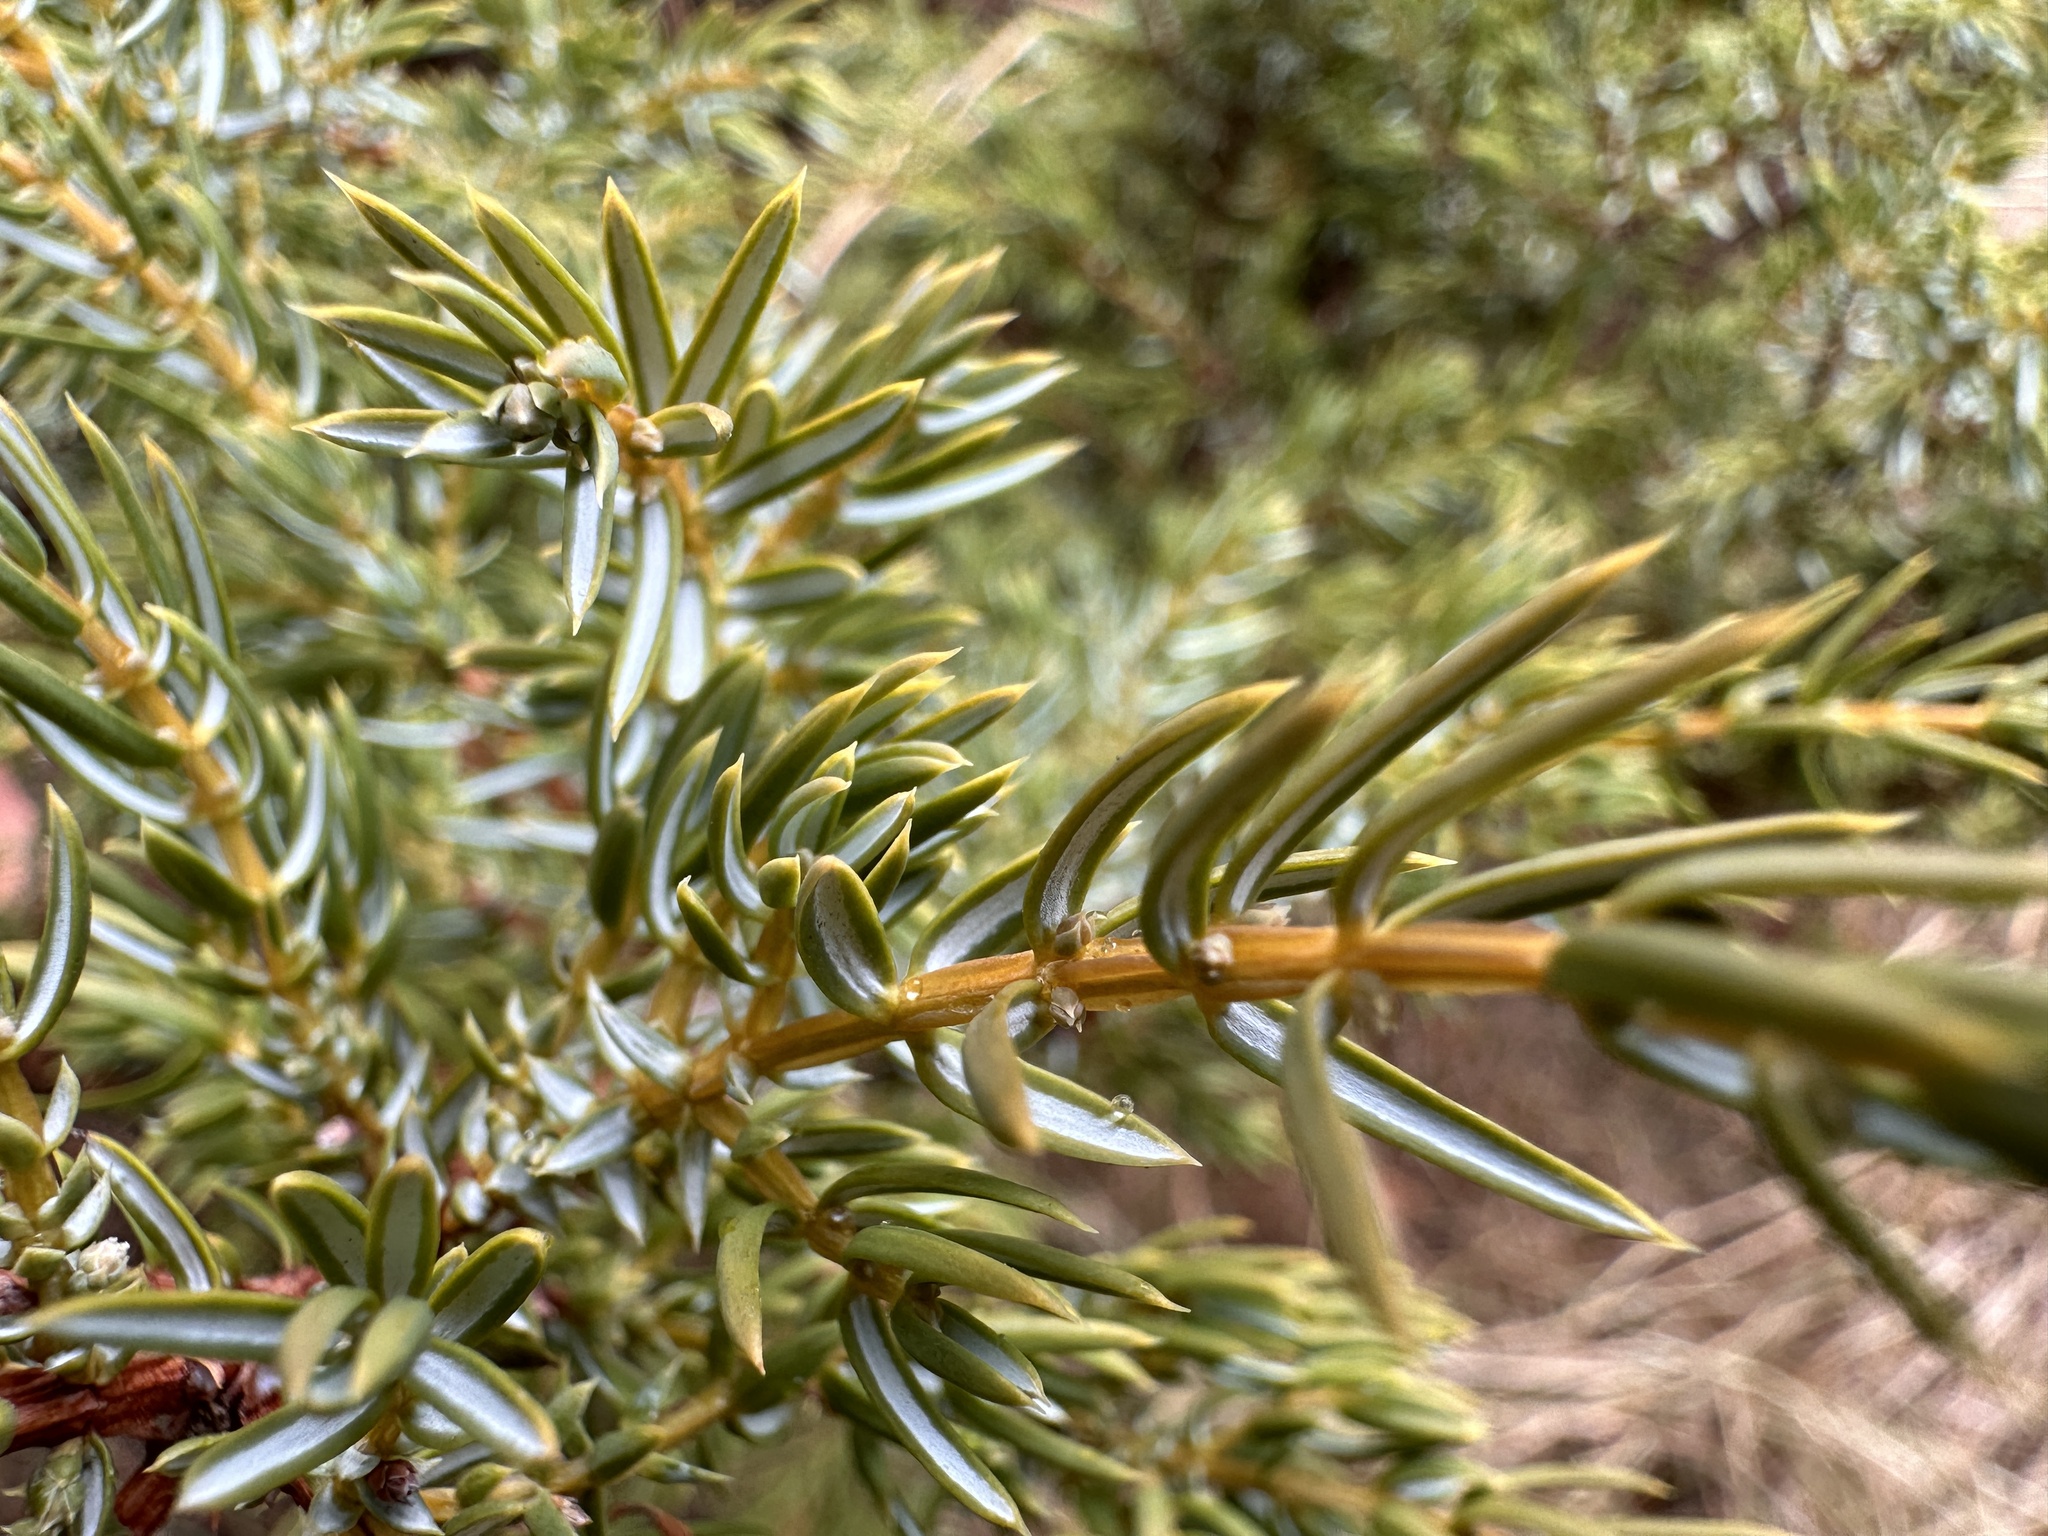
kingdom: Plantae
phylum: Tracheophyta
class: Pinopsida
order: Pinales
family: Cupressaceae
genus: Juniperus
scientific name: Juniperus communis
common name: Common juniper
